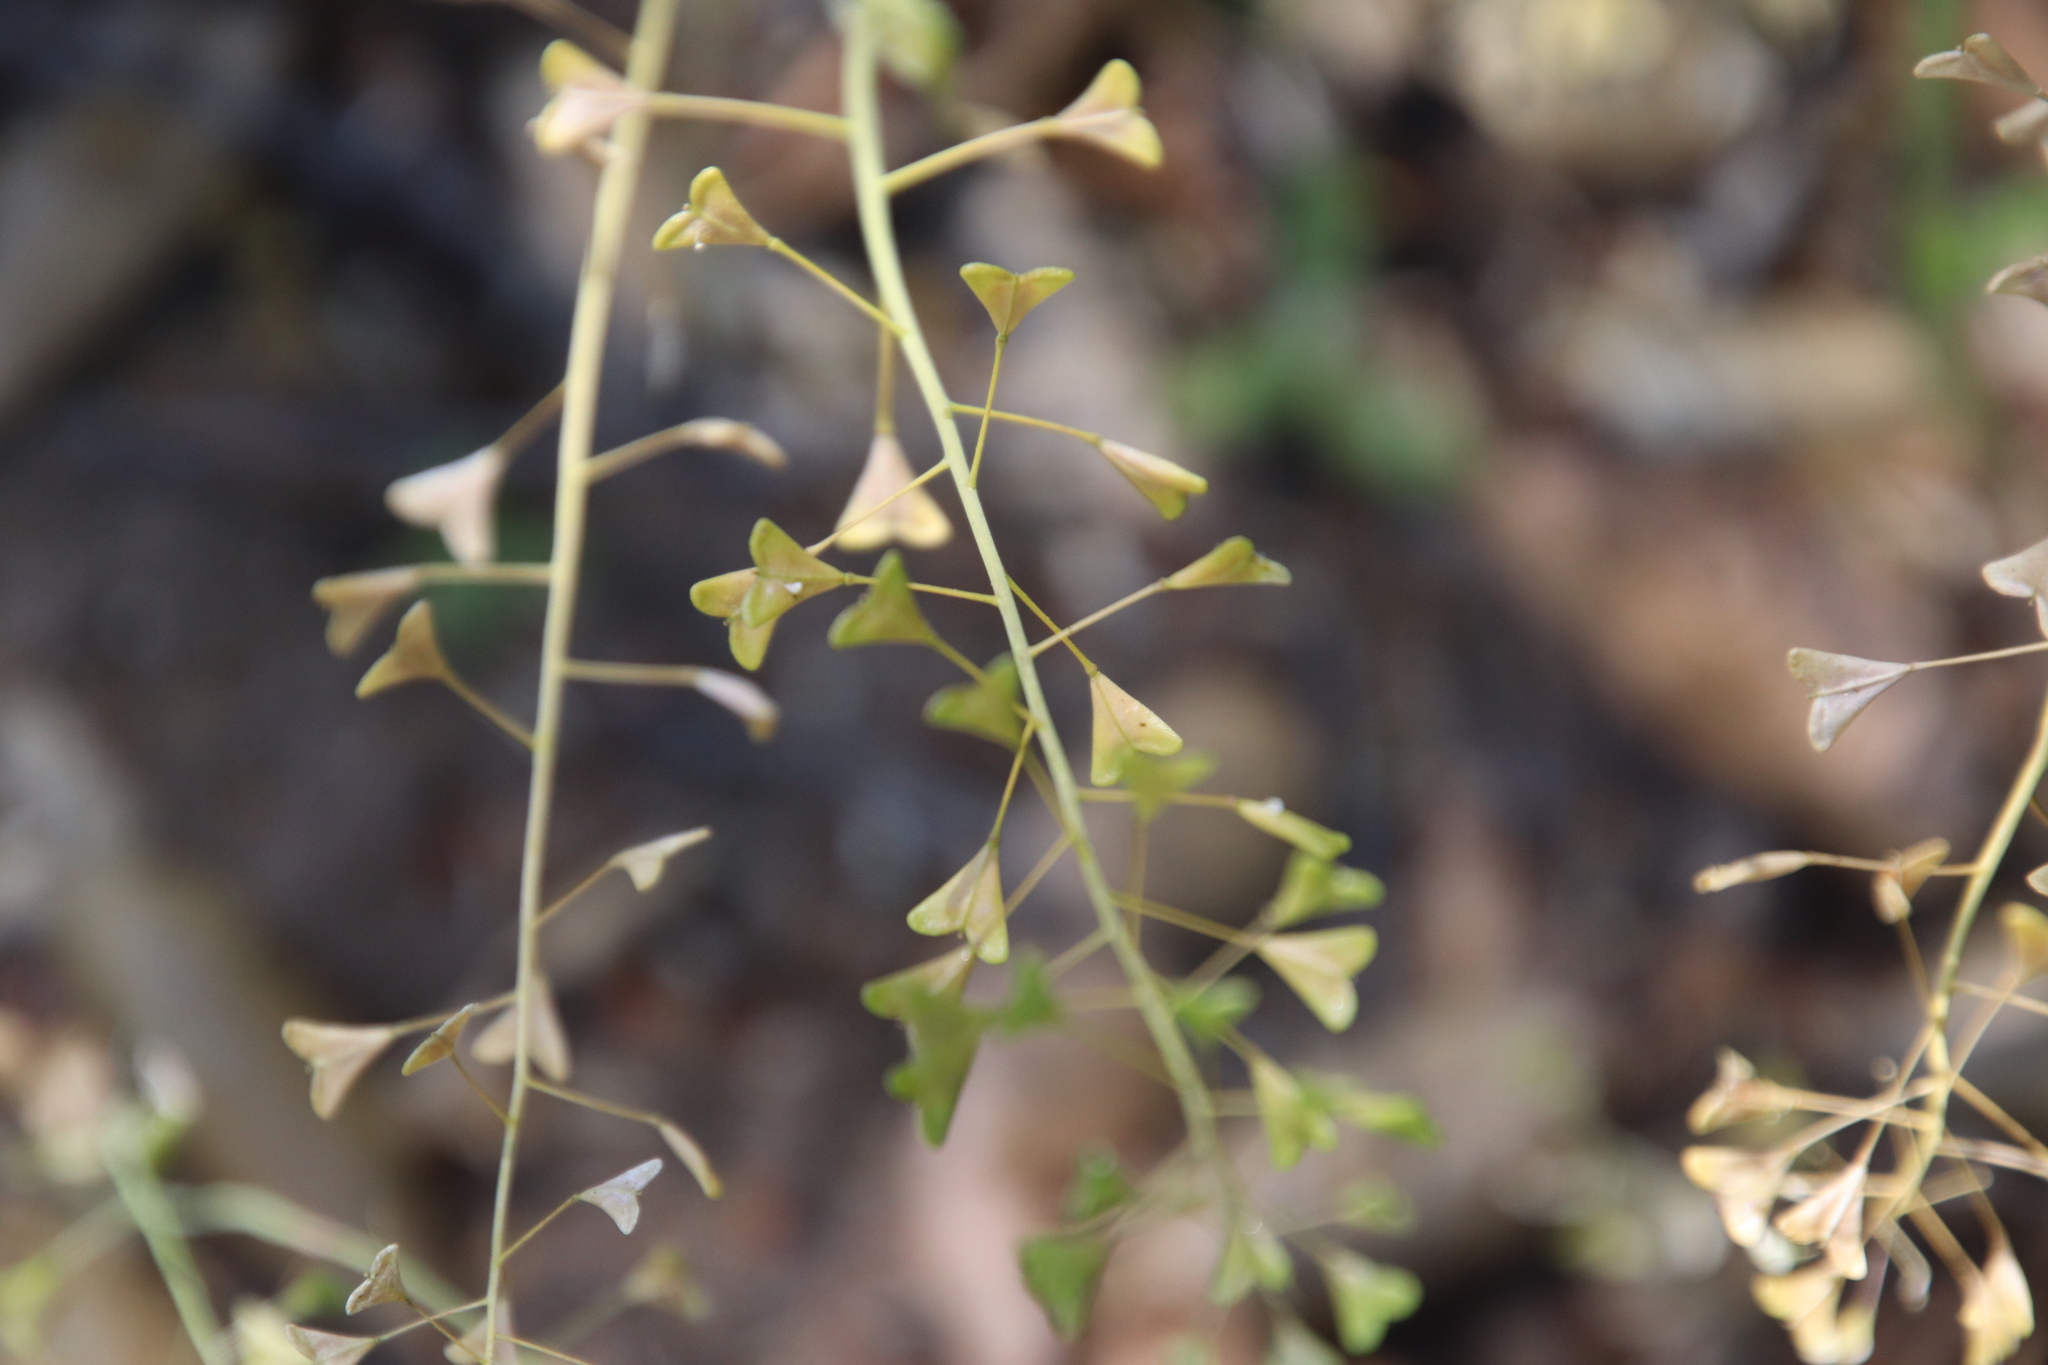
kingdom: Plantae
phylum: Tracheophyta
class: Magnoliopsida
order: Brassicales
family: Brassicaceae
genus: Capsella
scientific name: Capsella bursa-pastoris
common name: Shepherd's purse
